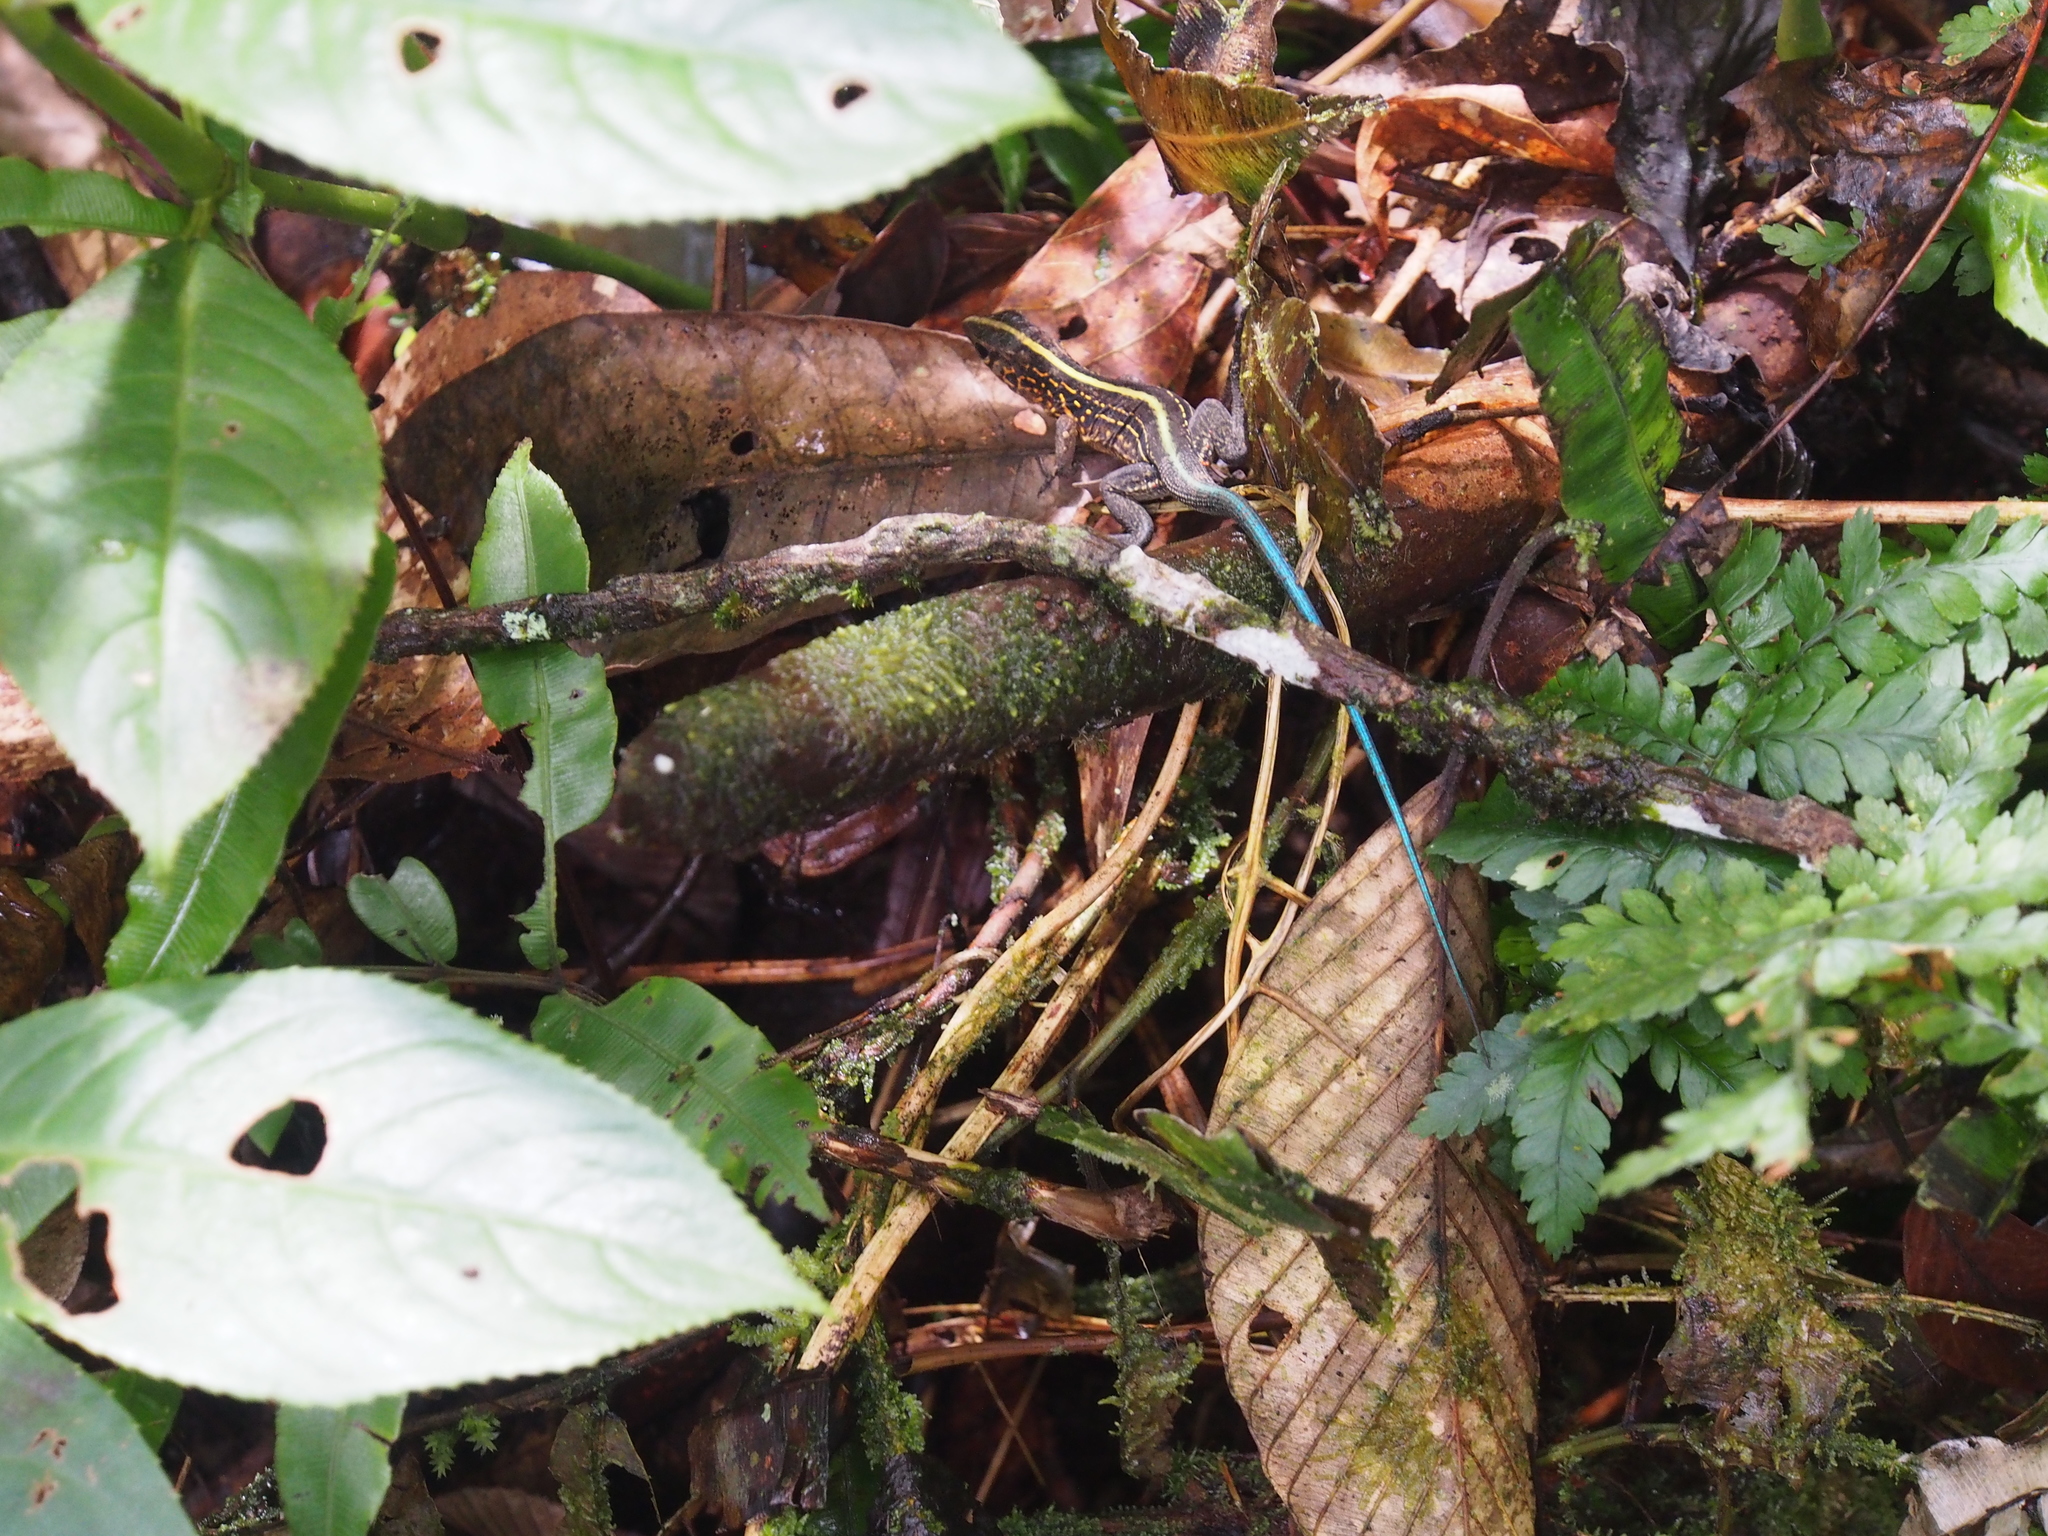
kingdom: Animalia
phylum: Chordata
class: Squamata
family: Teiidae
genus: Holcosus
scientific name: Holcosus festivus
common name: Middle american ameiva
